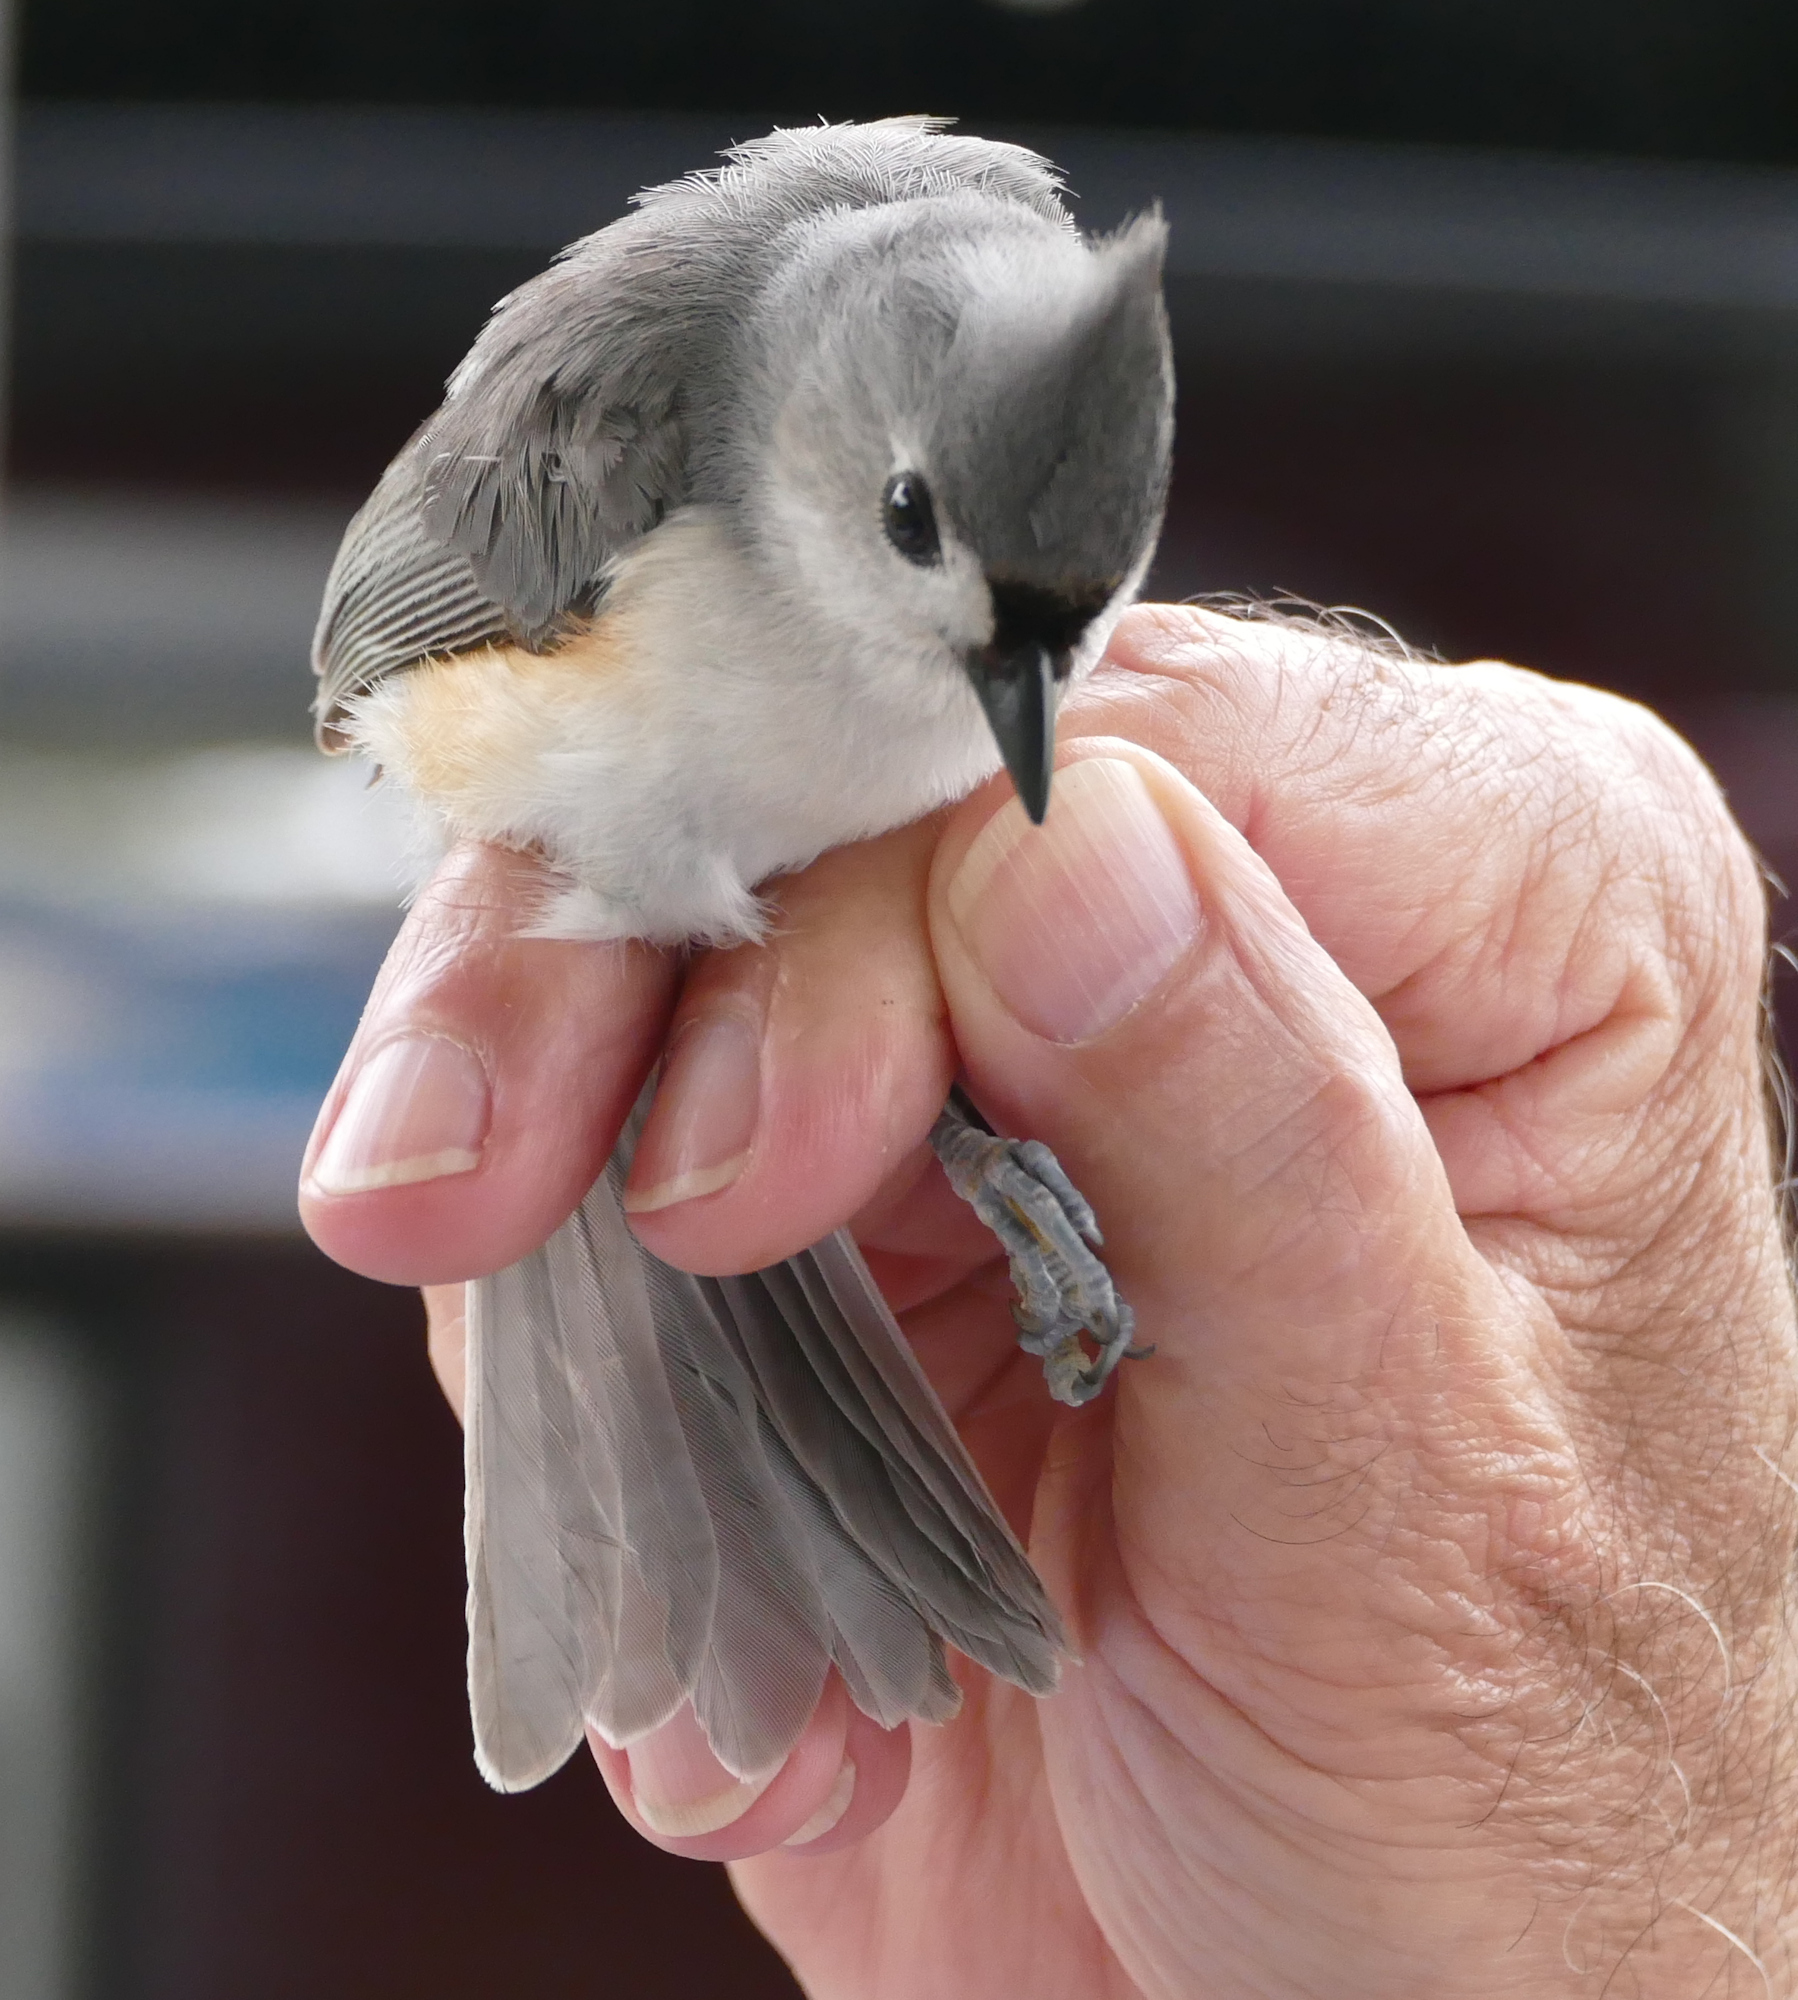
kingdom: Animalia
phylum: Chordata
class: Aves
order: Passeriformes
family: Paridae
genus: Baeolophus
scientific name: Baeolophus bicolor
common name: Tufted titmouse
